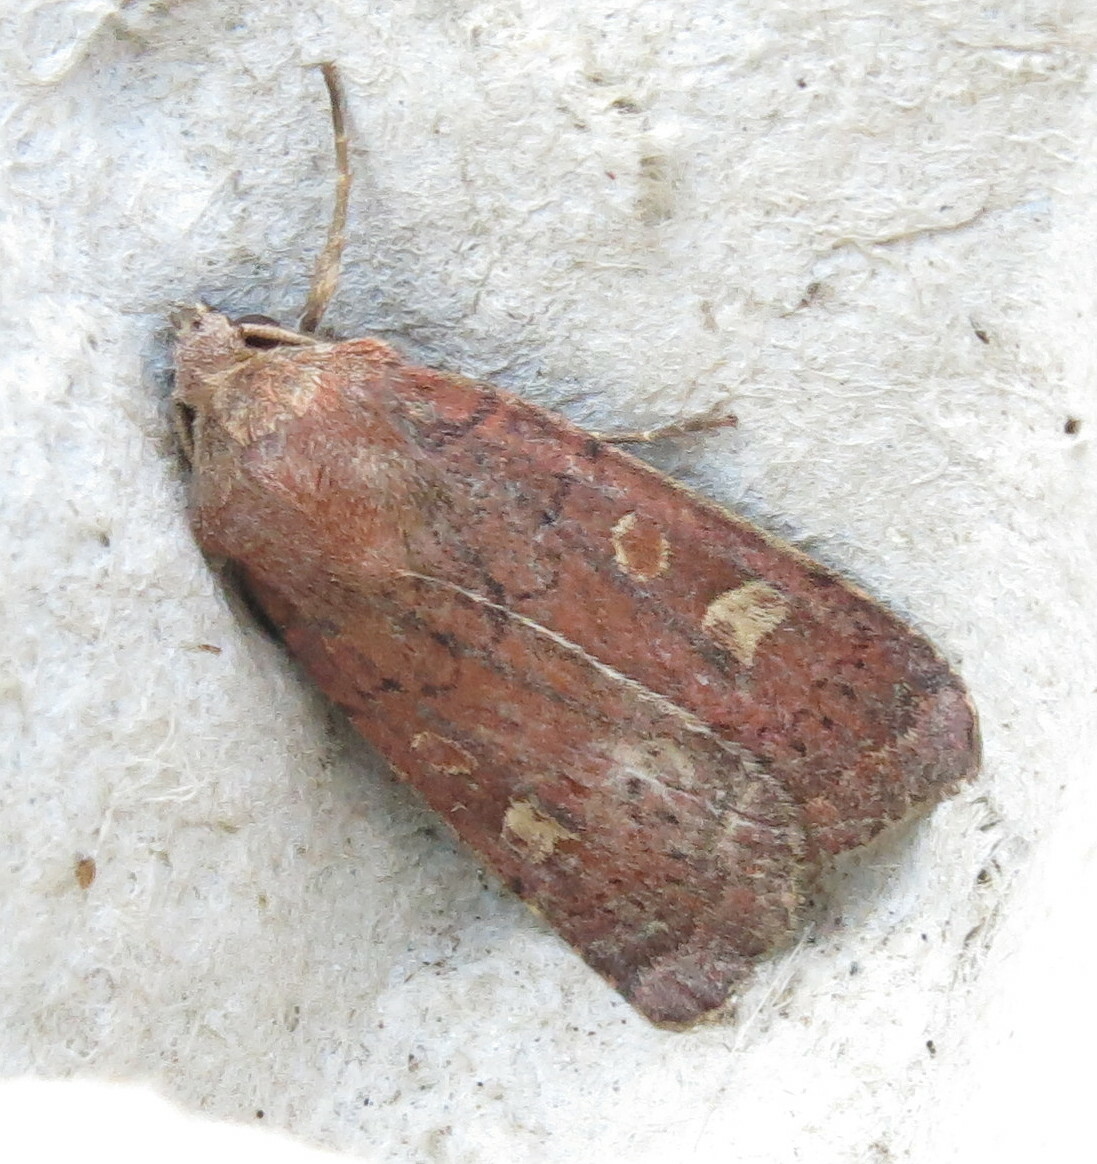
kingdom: Animalia
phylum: Arthropoda
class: Insecta
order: Lepidoptera
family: Noctuidae
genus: Xestia
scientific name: Xestia xanthographa
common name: Square-spot rustic
